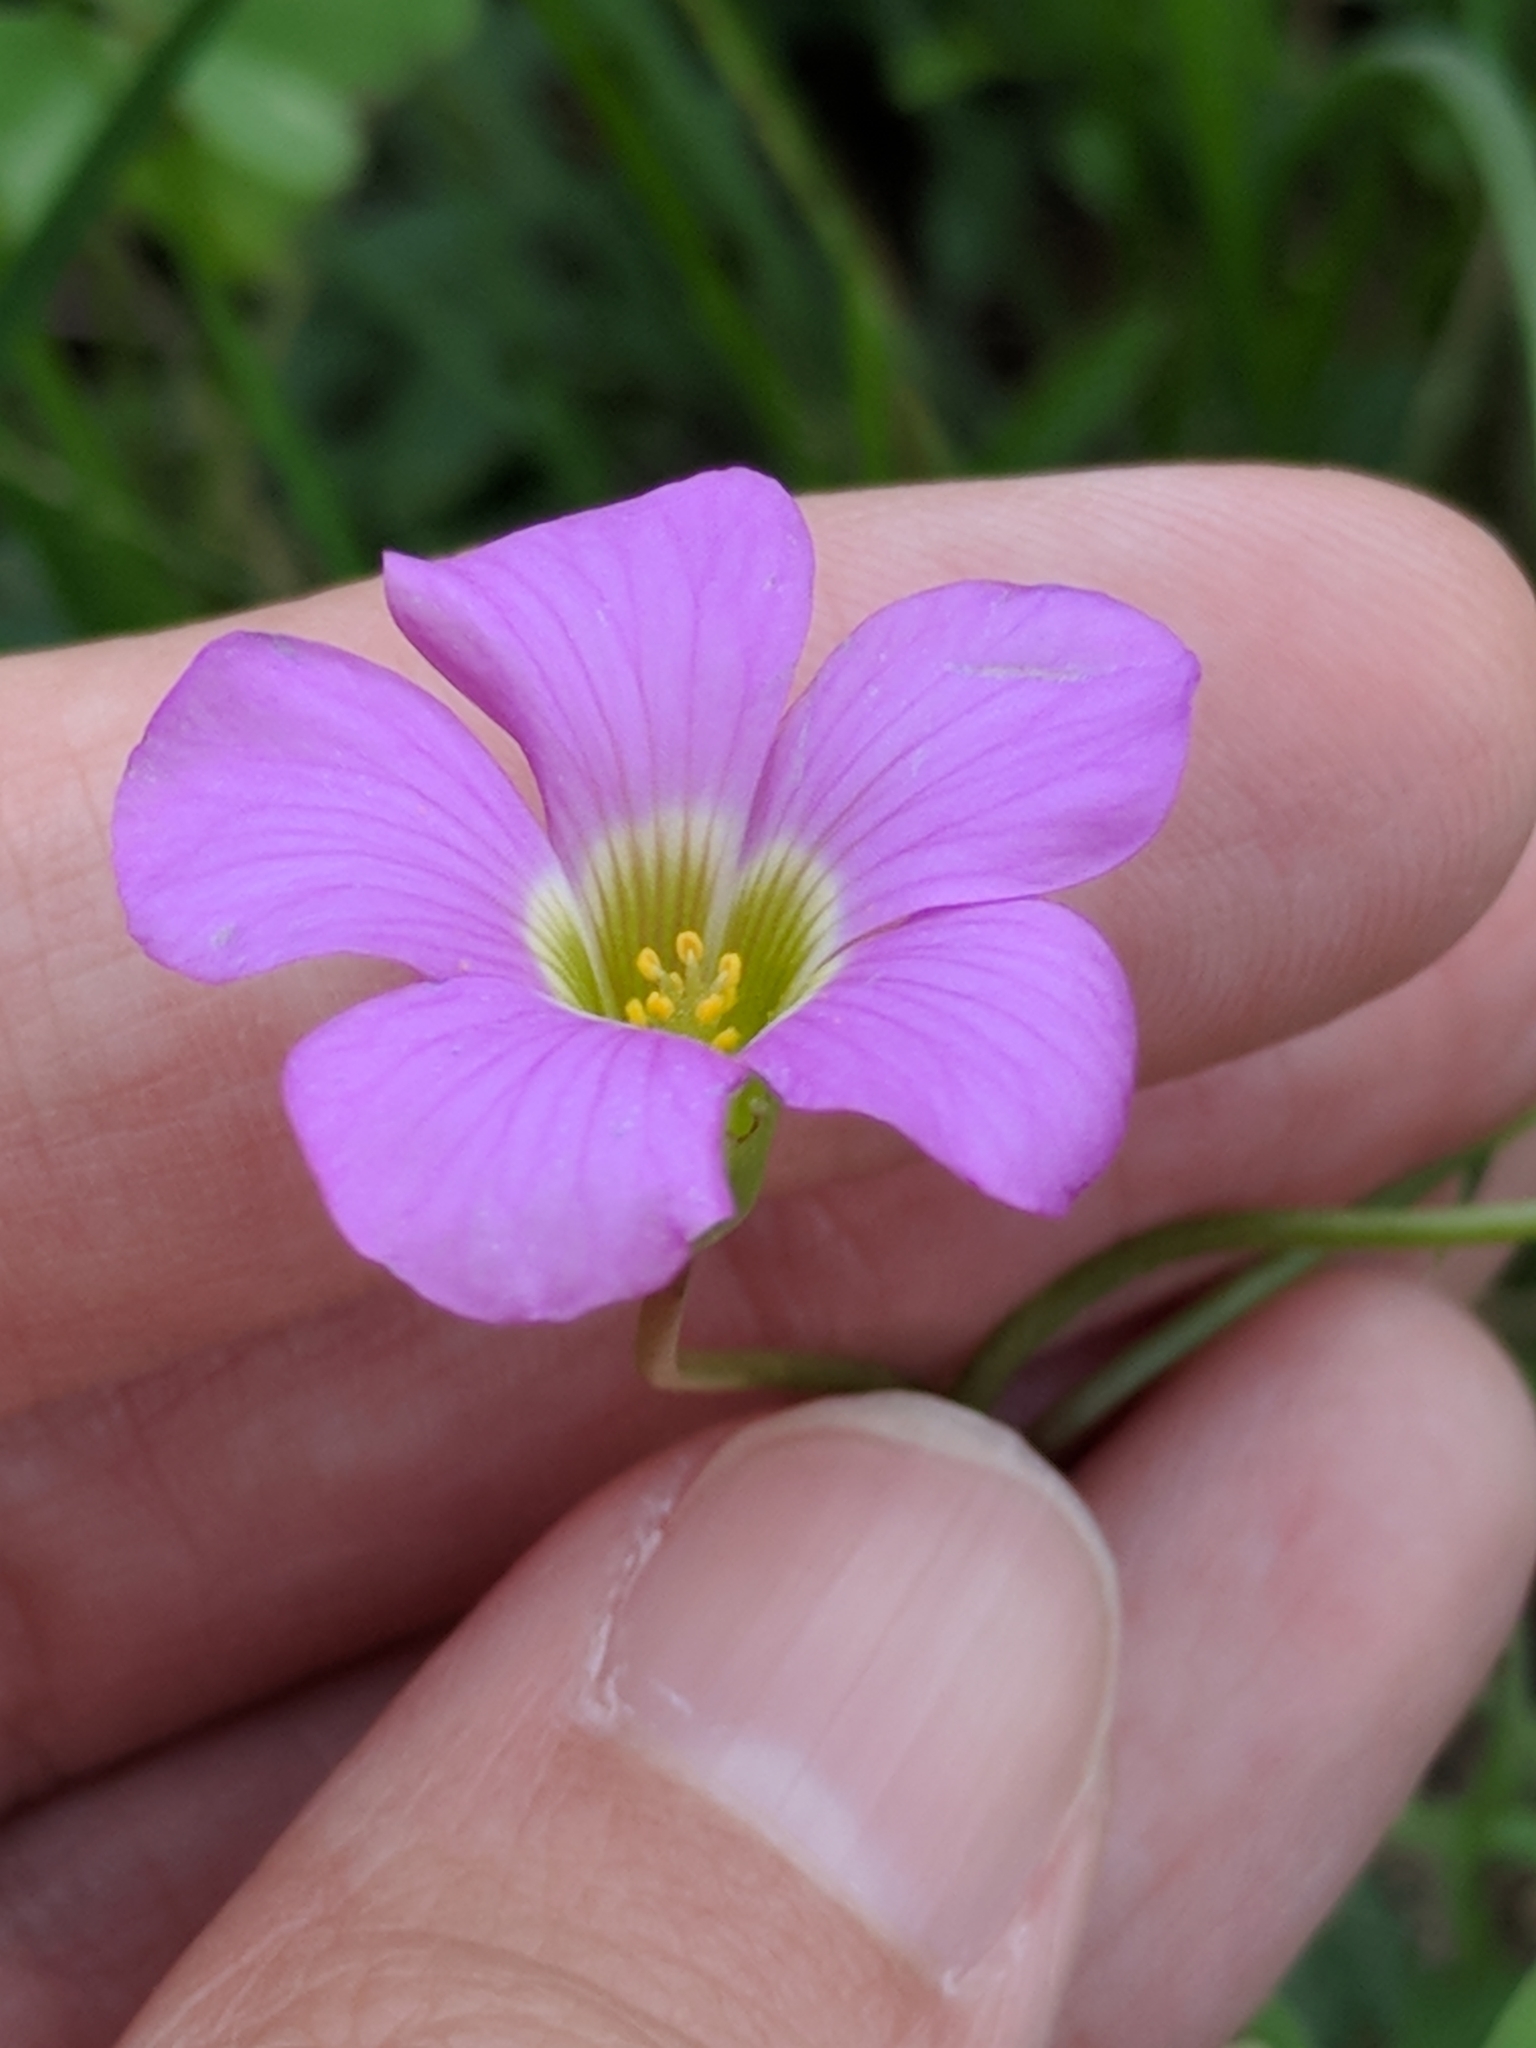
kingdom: Plantae
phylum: Tracheophyta
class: Magnoliopsida
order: Oxalidales
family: Oxalidaceae
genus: Oxalis
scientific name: Oxalis drummondii
